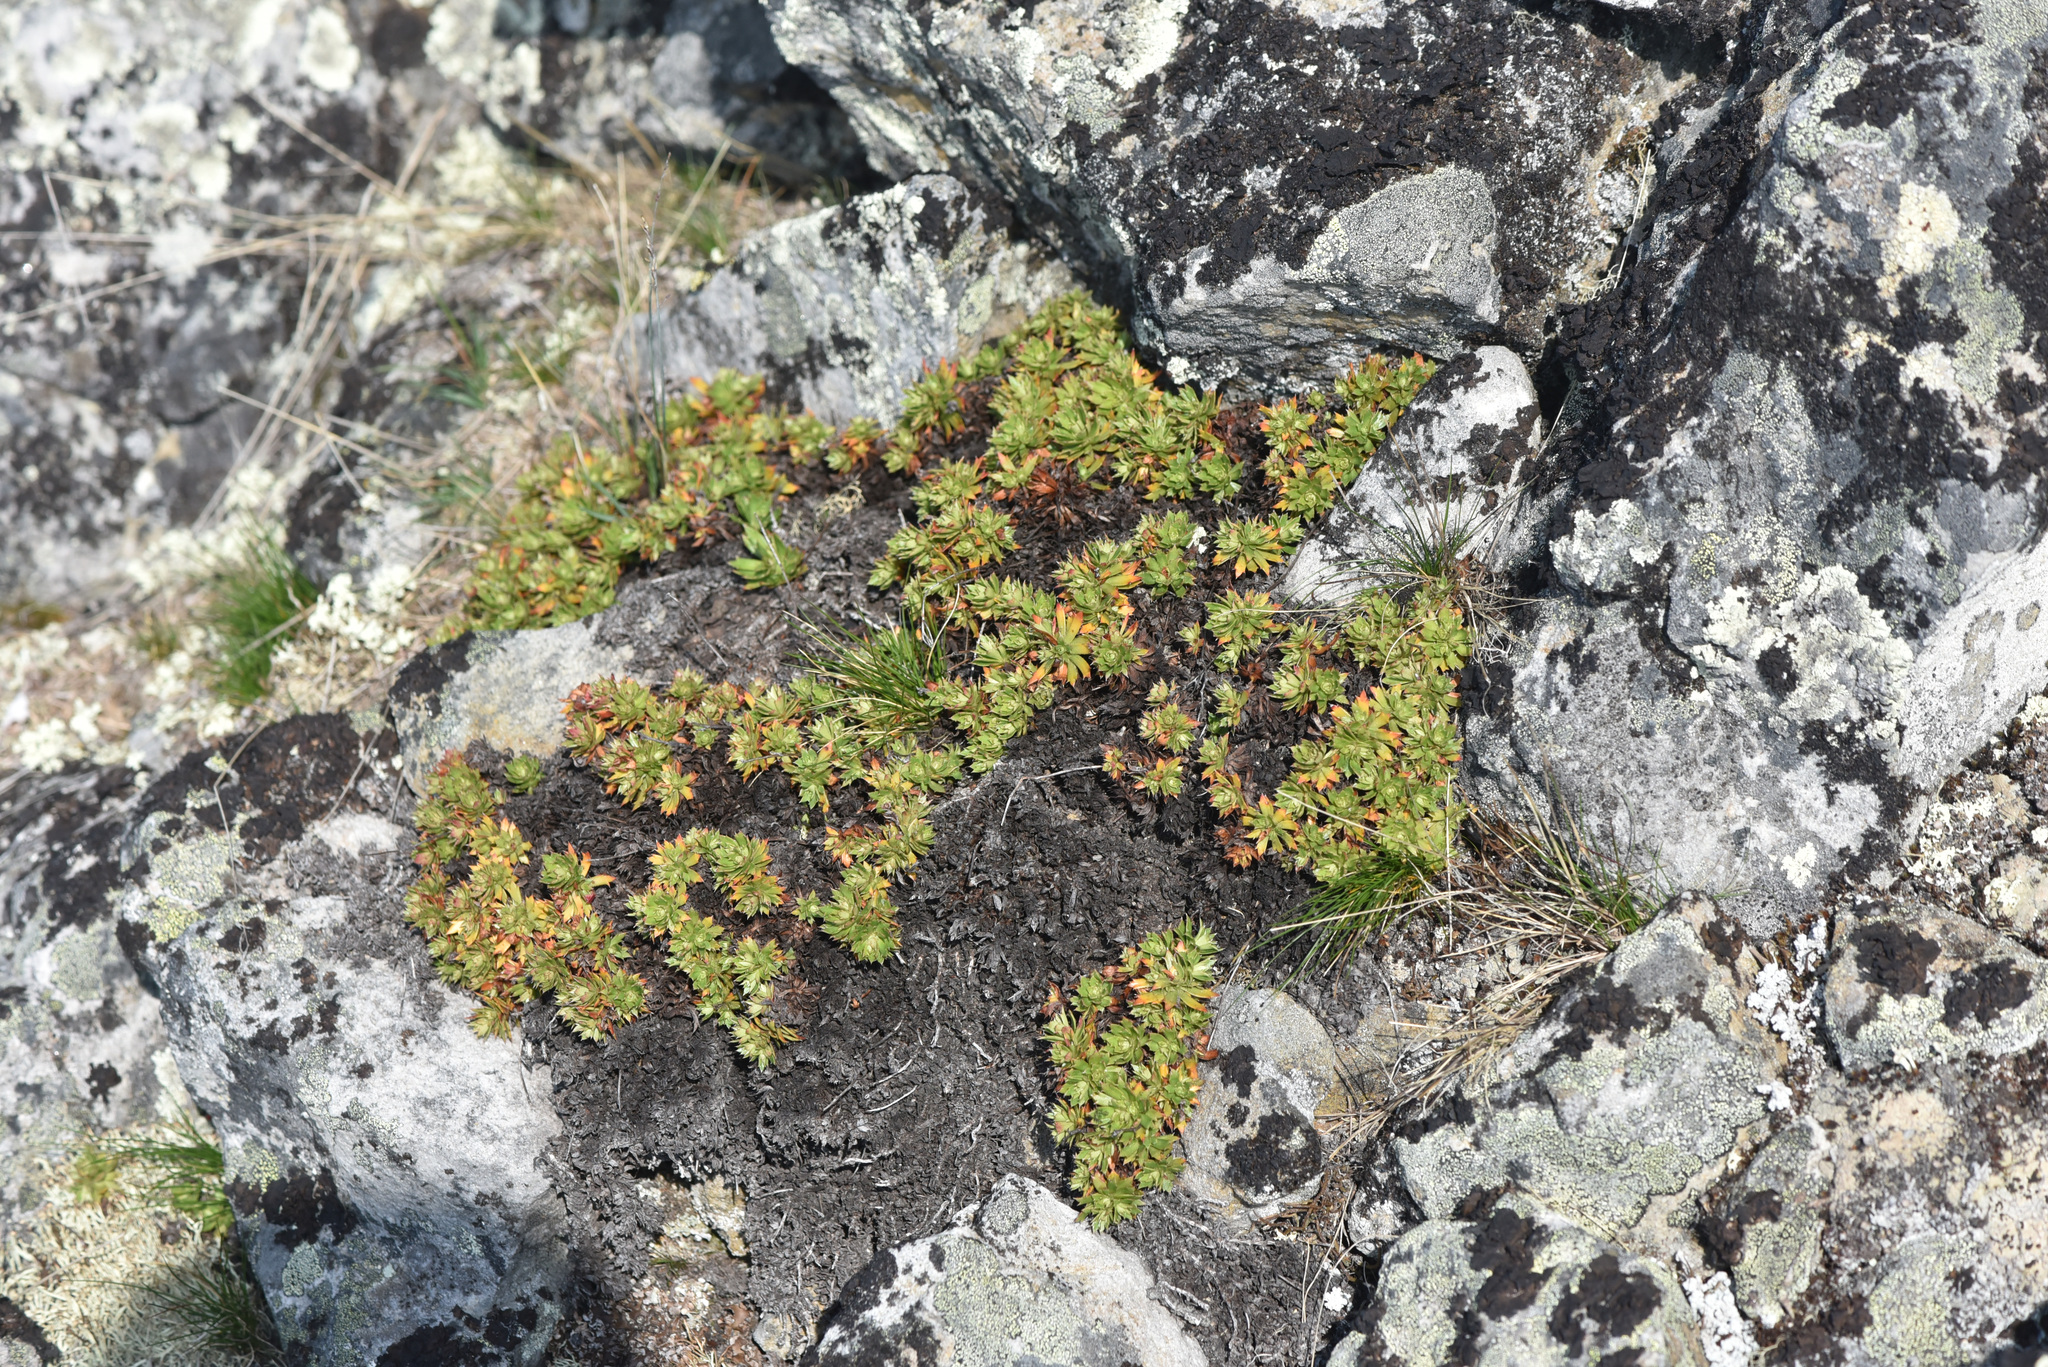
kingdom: Plantae
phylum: Tracheophyta
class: Magnoliopsida
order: Saxifragales
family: Saxifragaceae
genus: Saxifraga
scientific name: Saxifraga tricuspidata
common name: Prickly saxifrage
